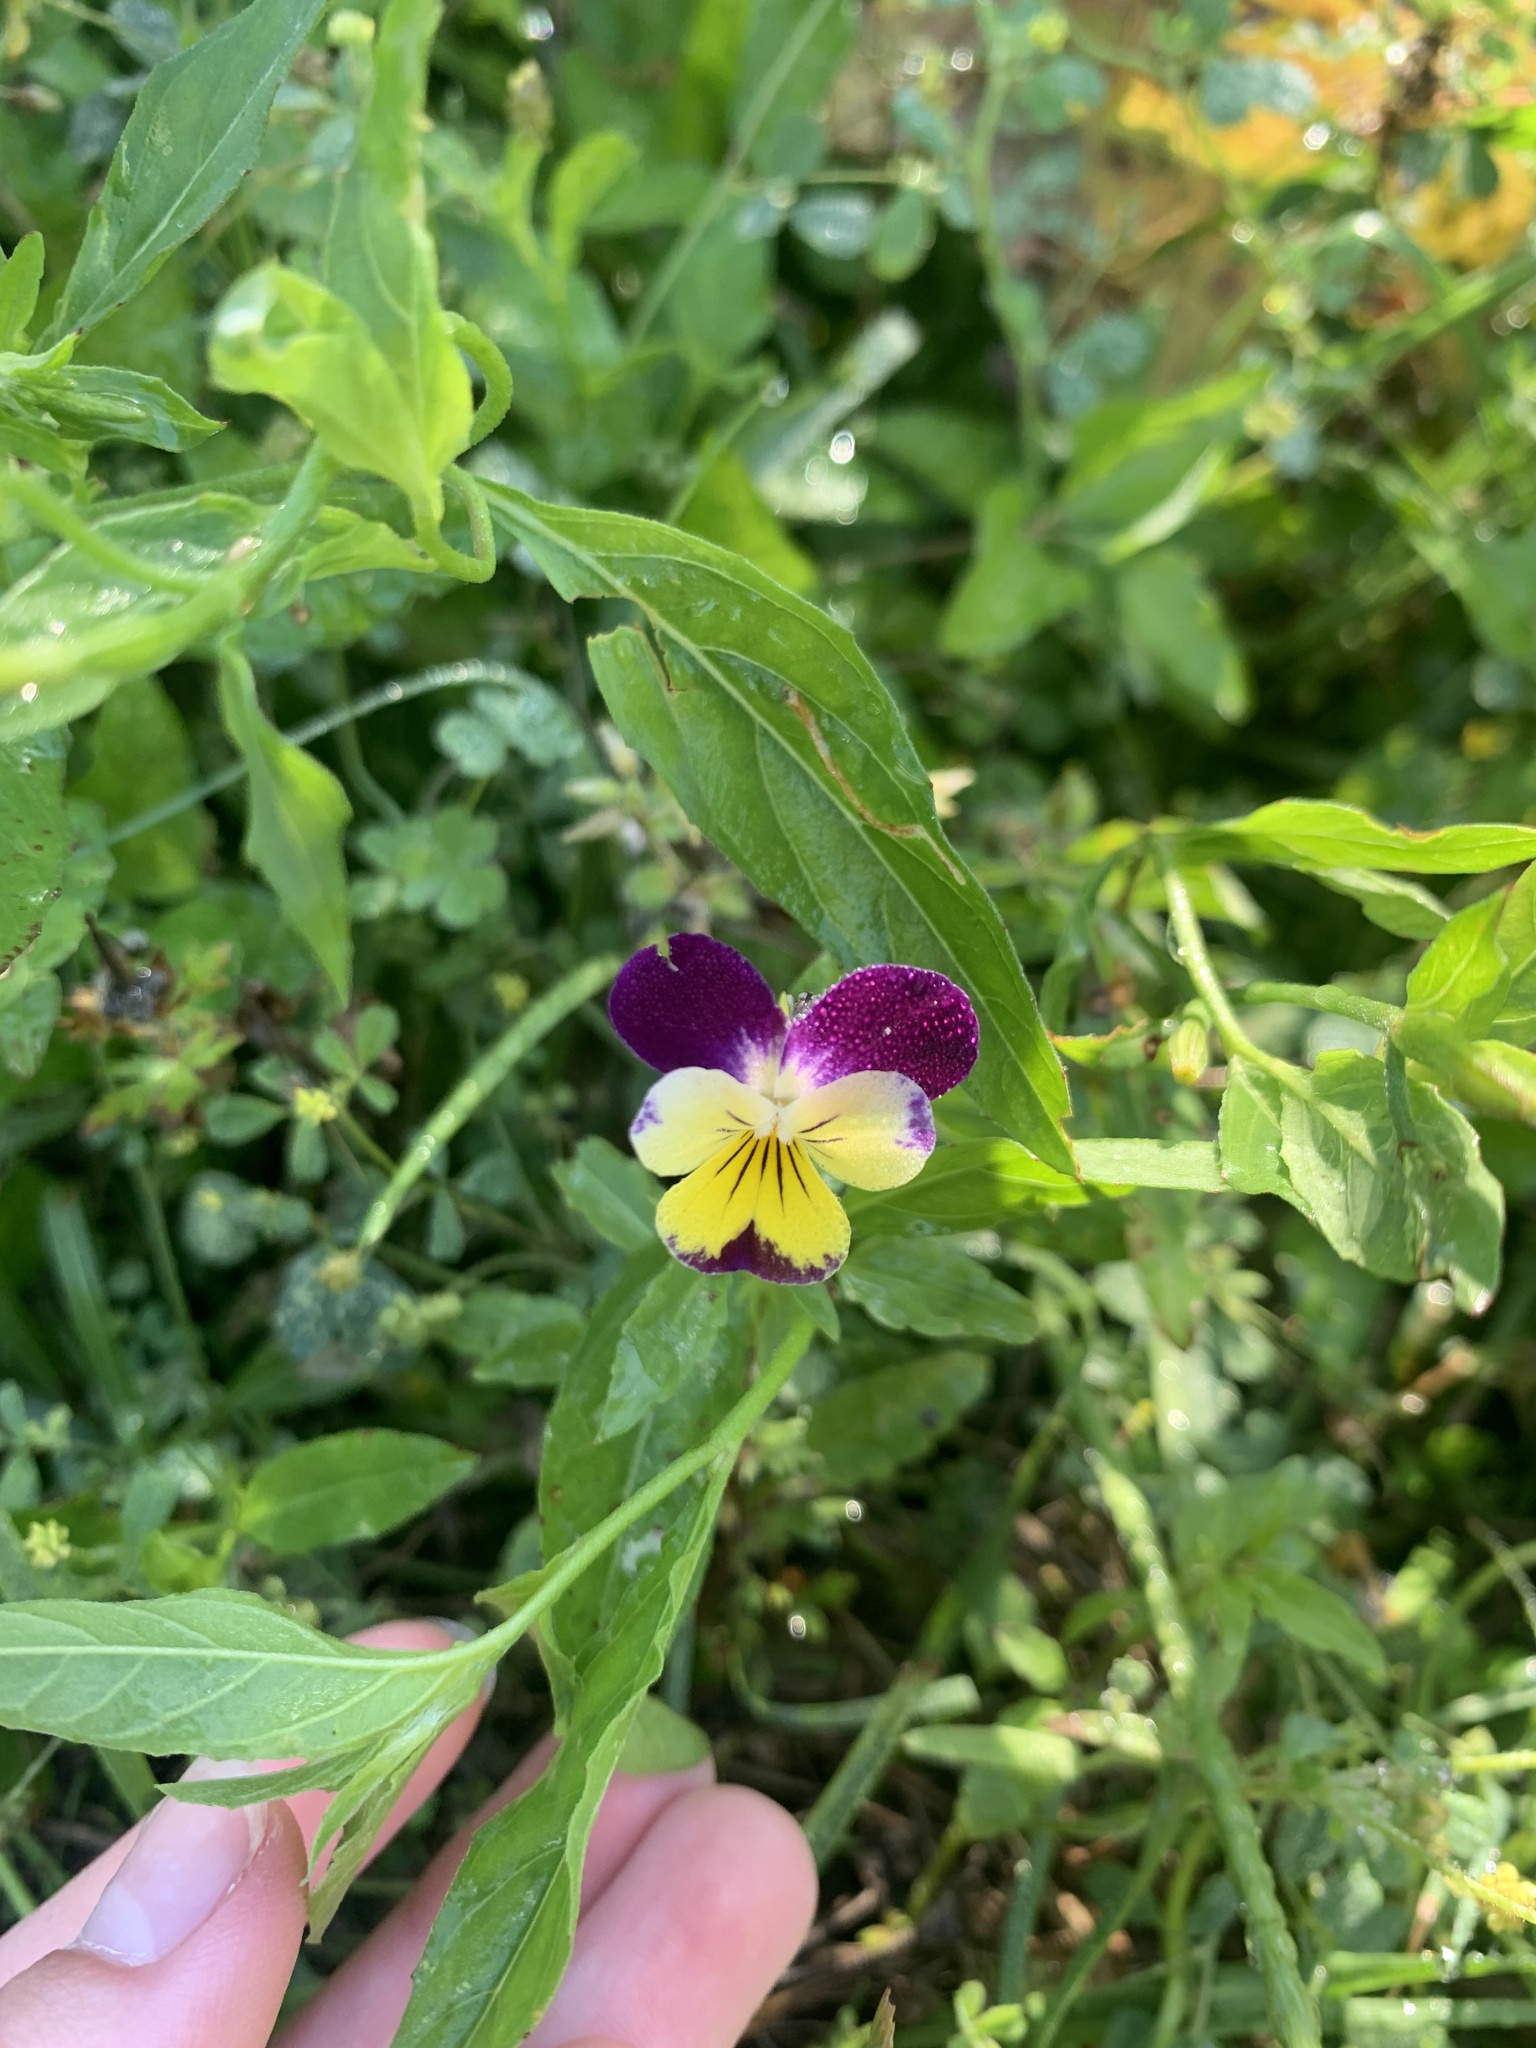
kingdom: Plantae
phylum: Tracheophyta
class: Magnoliopsida
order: Malpighiales
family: Violaceae
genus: Viola
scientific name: Viola williamsii
